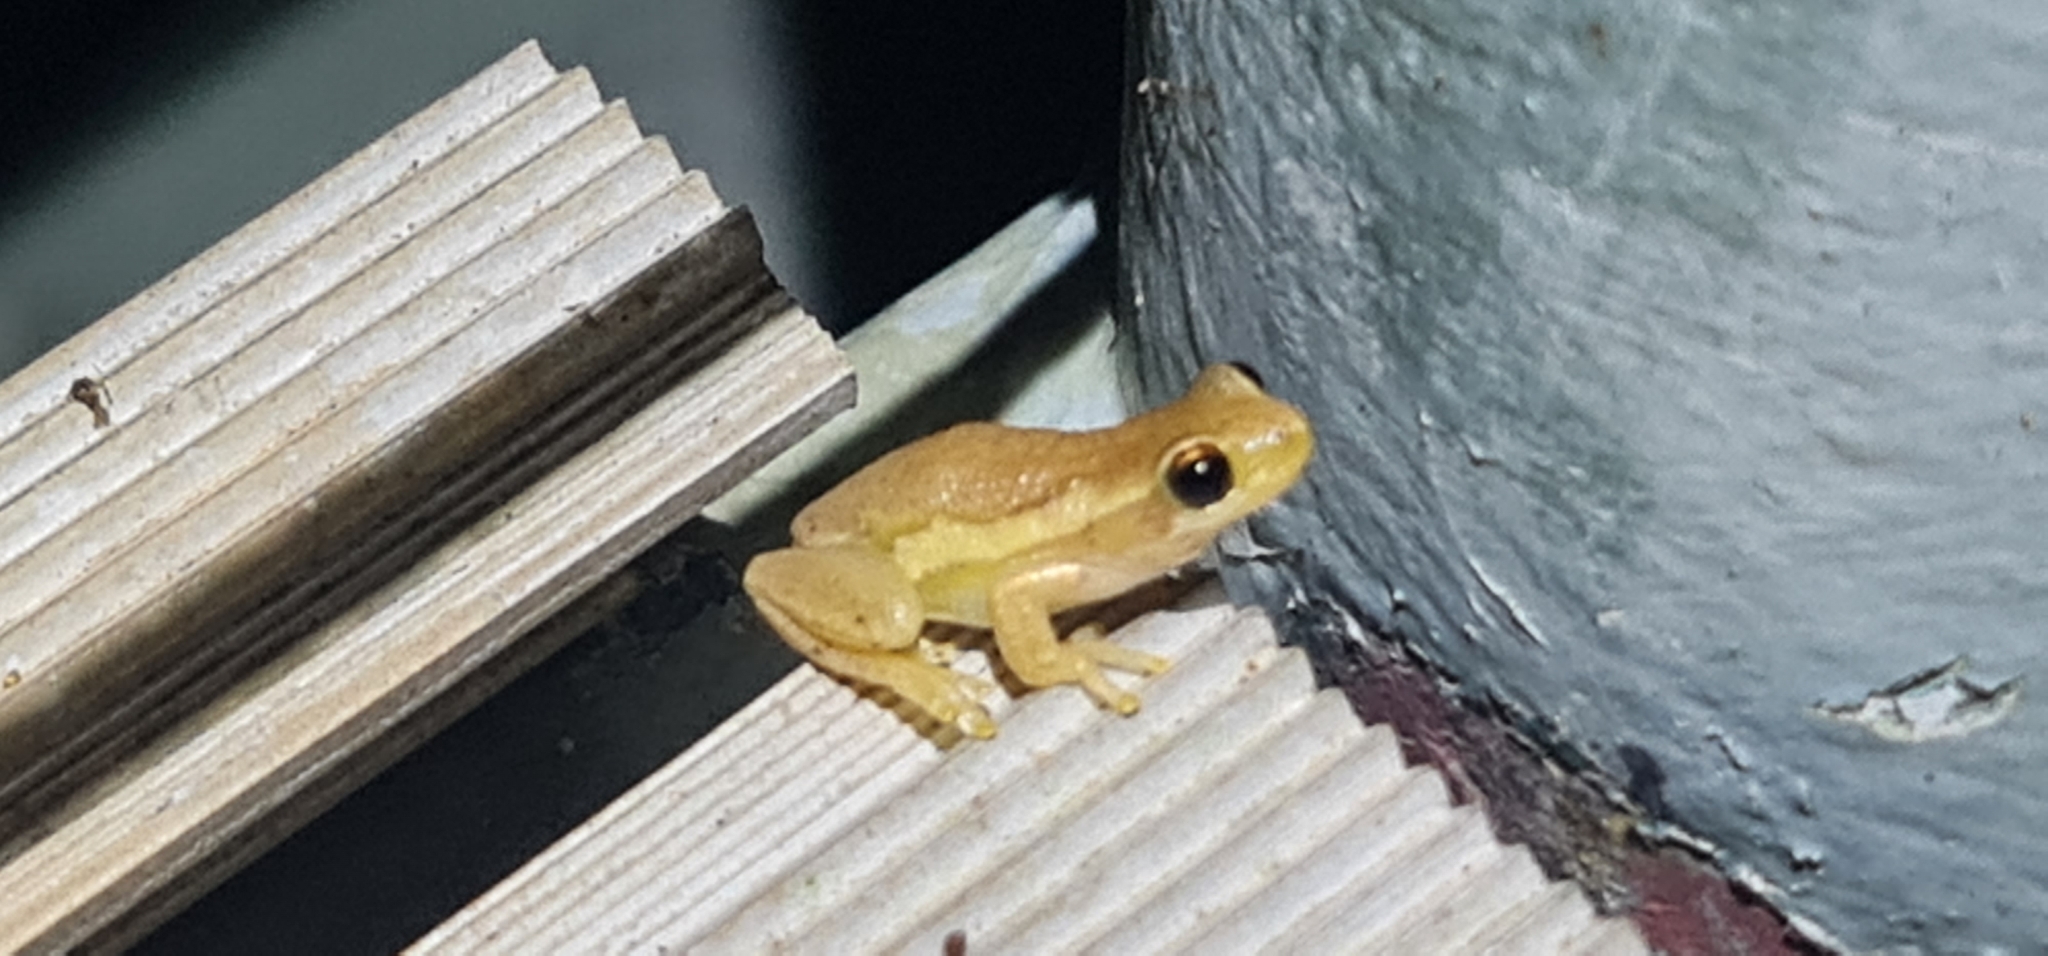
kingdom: Animalia
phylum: Chordata
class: Amphibia
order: Anura
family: Pelodryadidae
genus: Litoria
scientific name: Litoria rubella
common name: Desert tree frog
